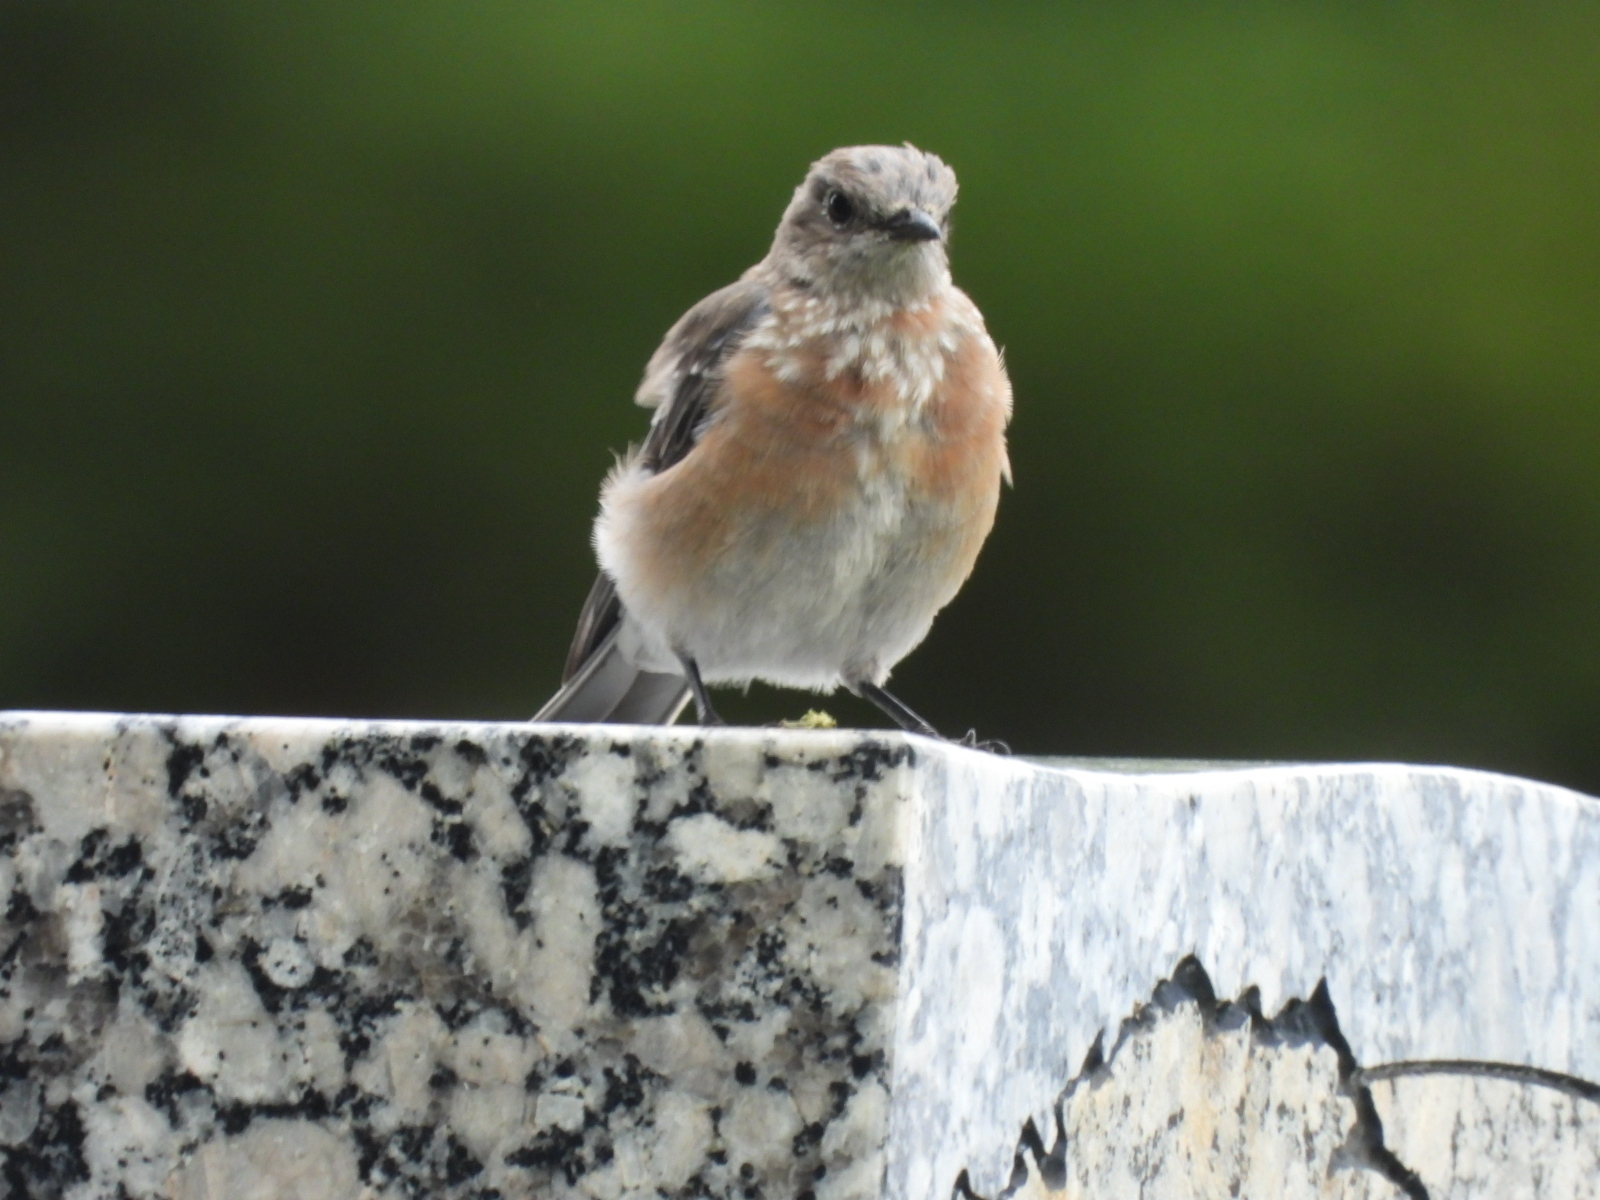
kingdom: Animalia
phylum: Chordata
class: Aves
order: Passeriformes
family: Turdidae
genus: Sialia
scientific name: Sialia mexicana
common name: Western bluebird
